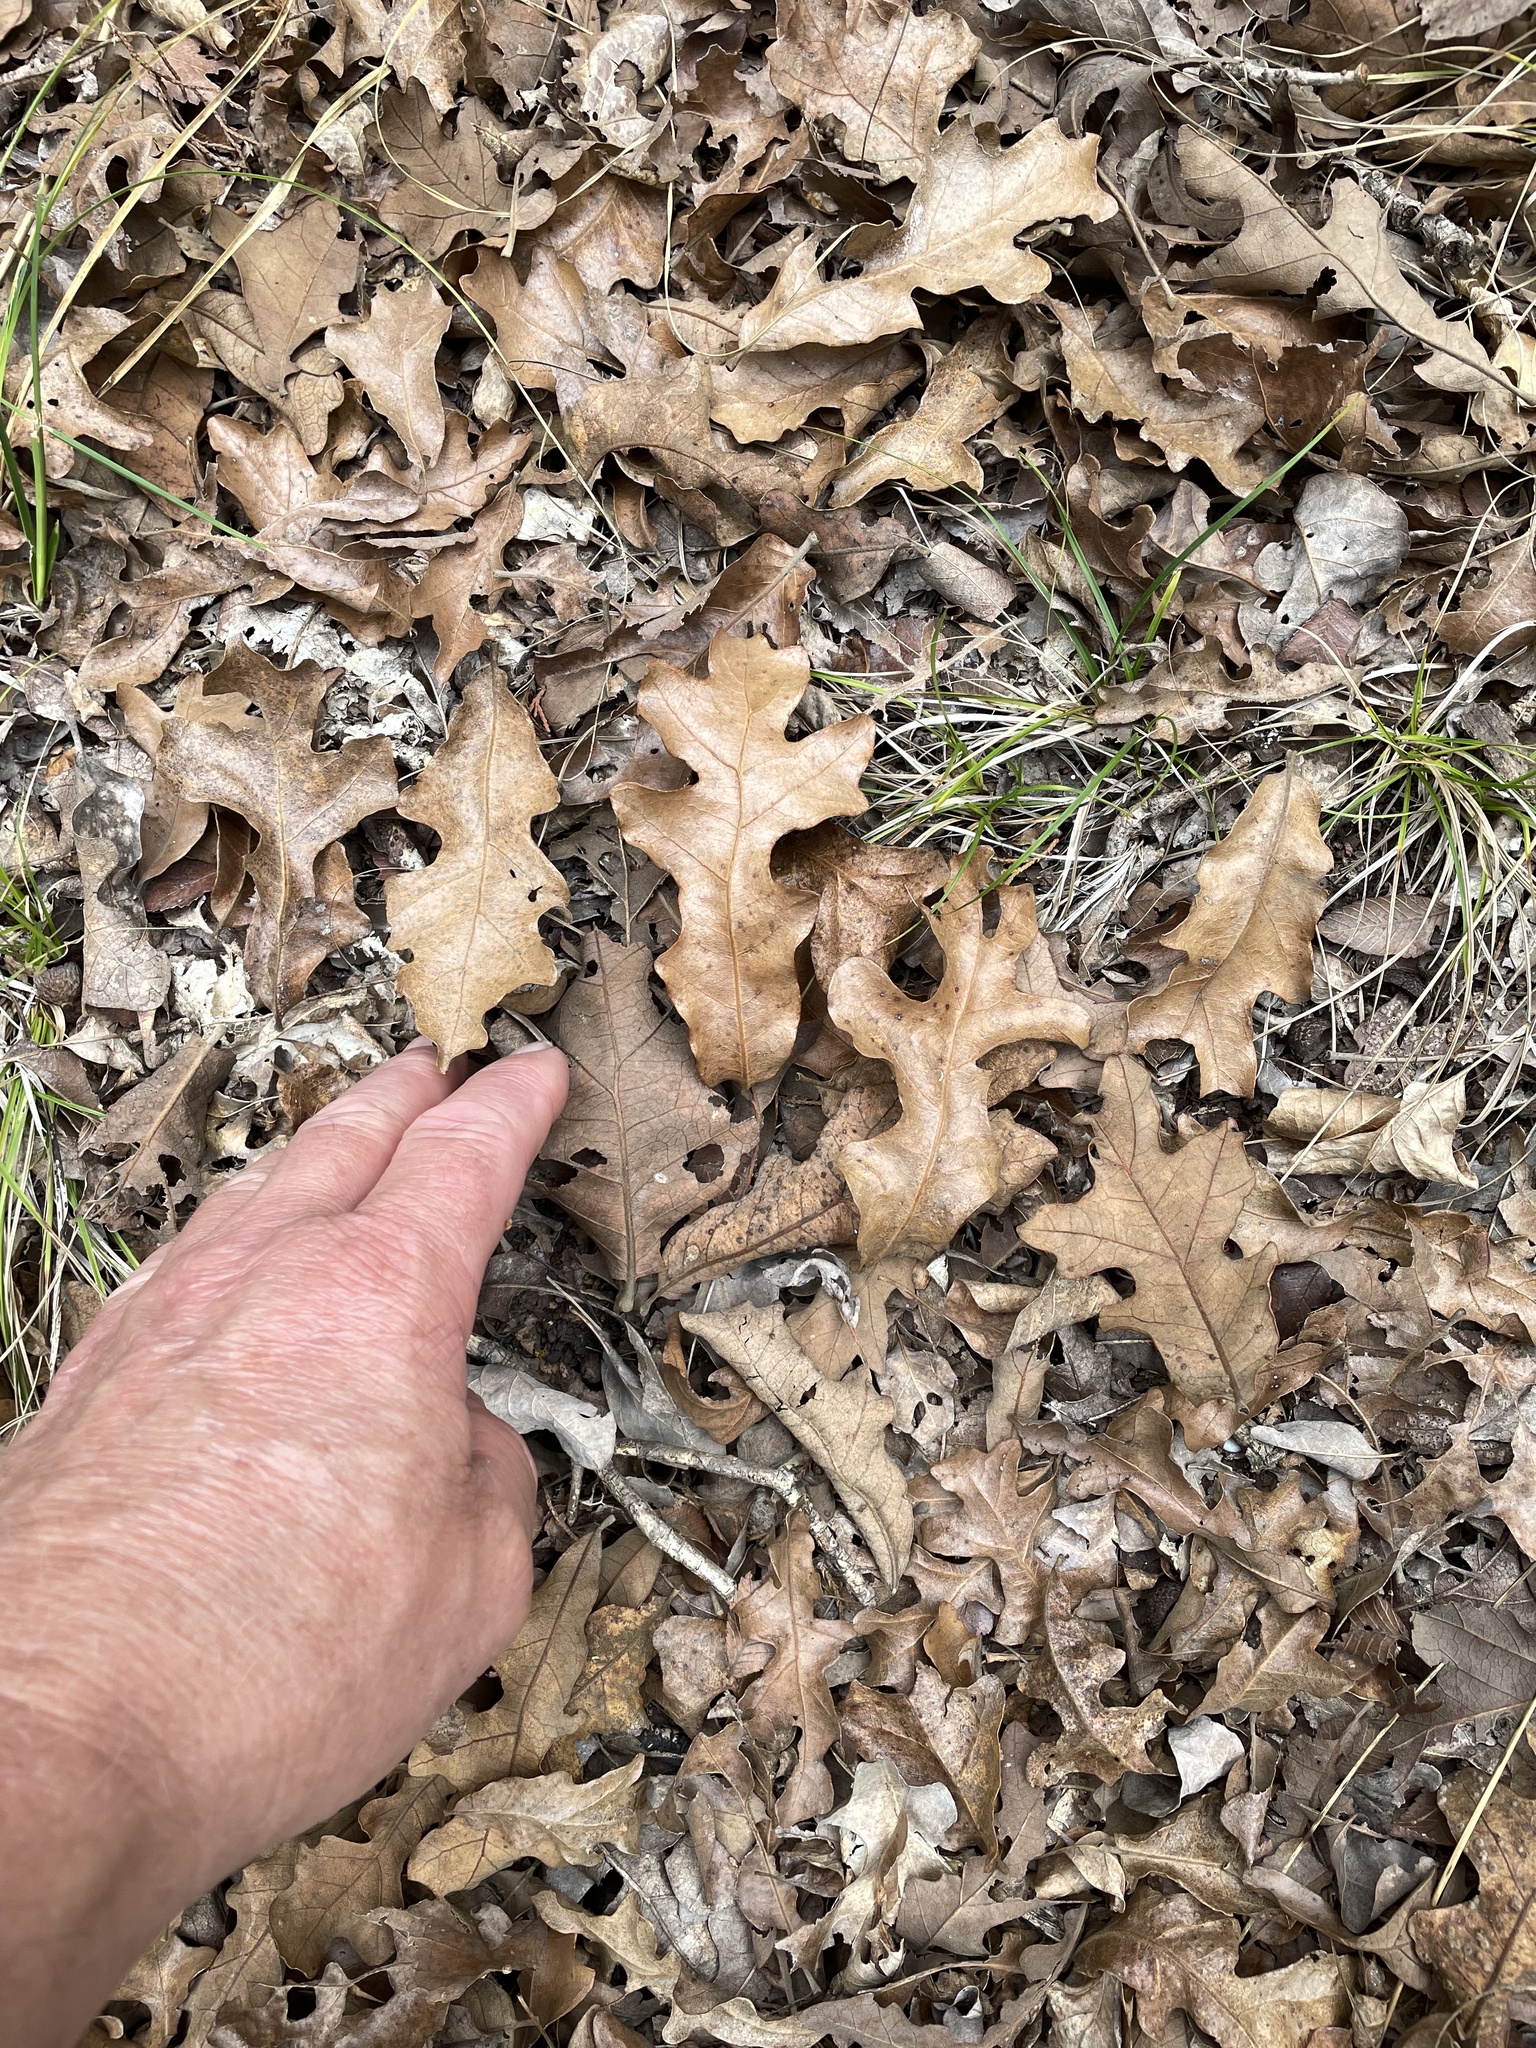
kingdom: Plantae
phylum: Tracheophyta
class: Magnoliopsida
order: Fagales
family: Fagaceae
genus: Quercus
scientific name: Quercus stellata
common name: Post oak
